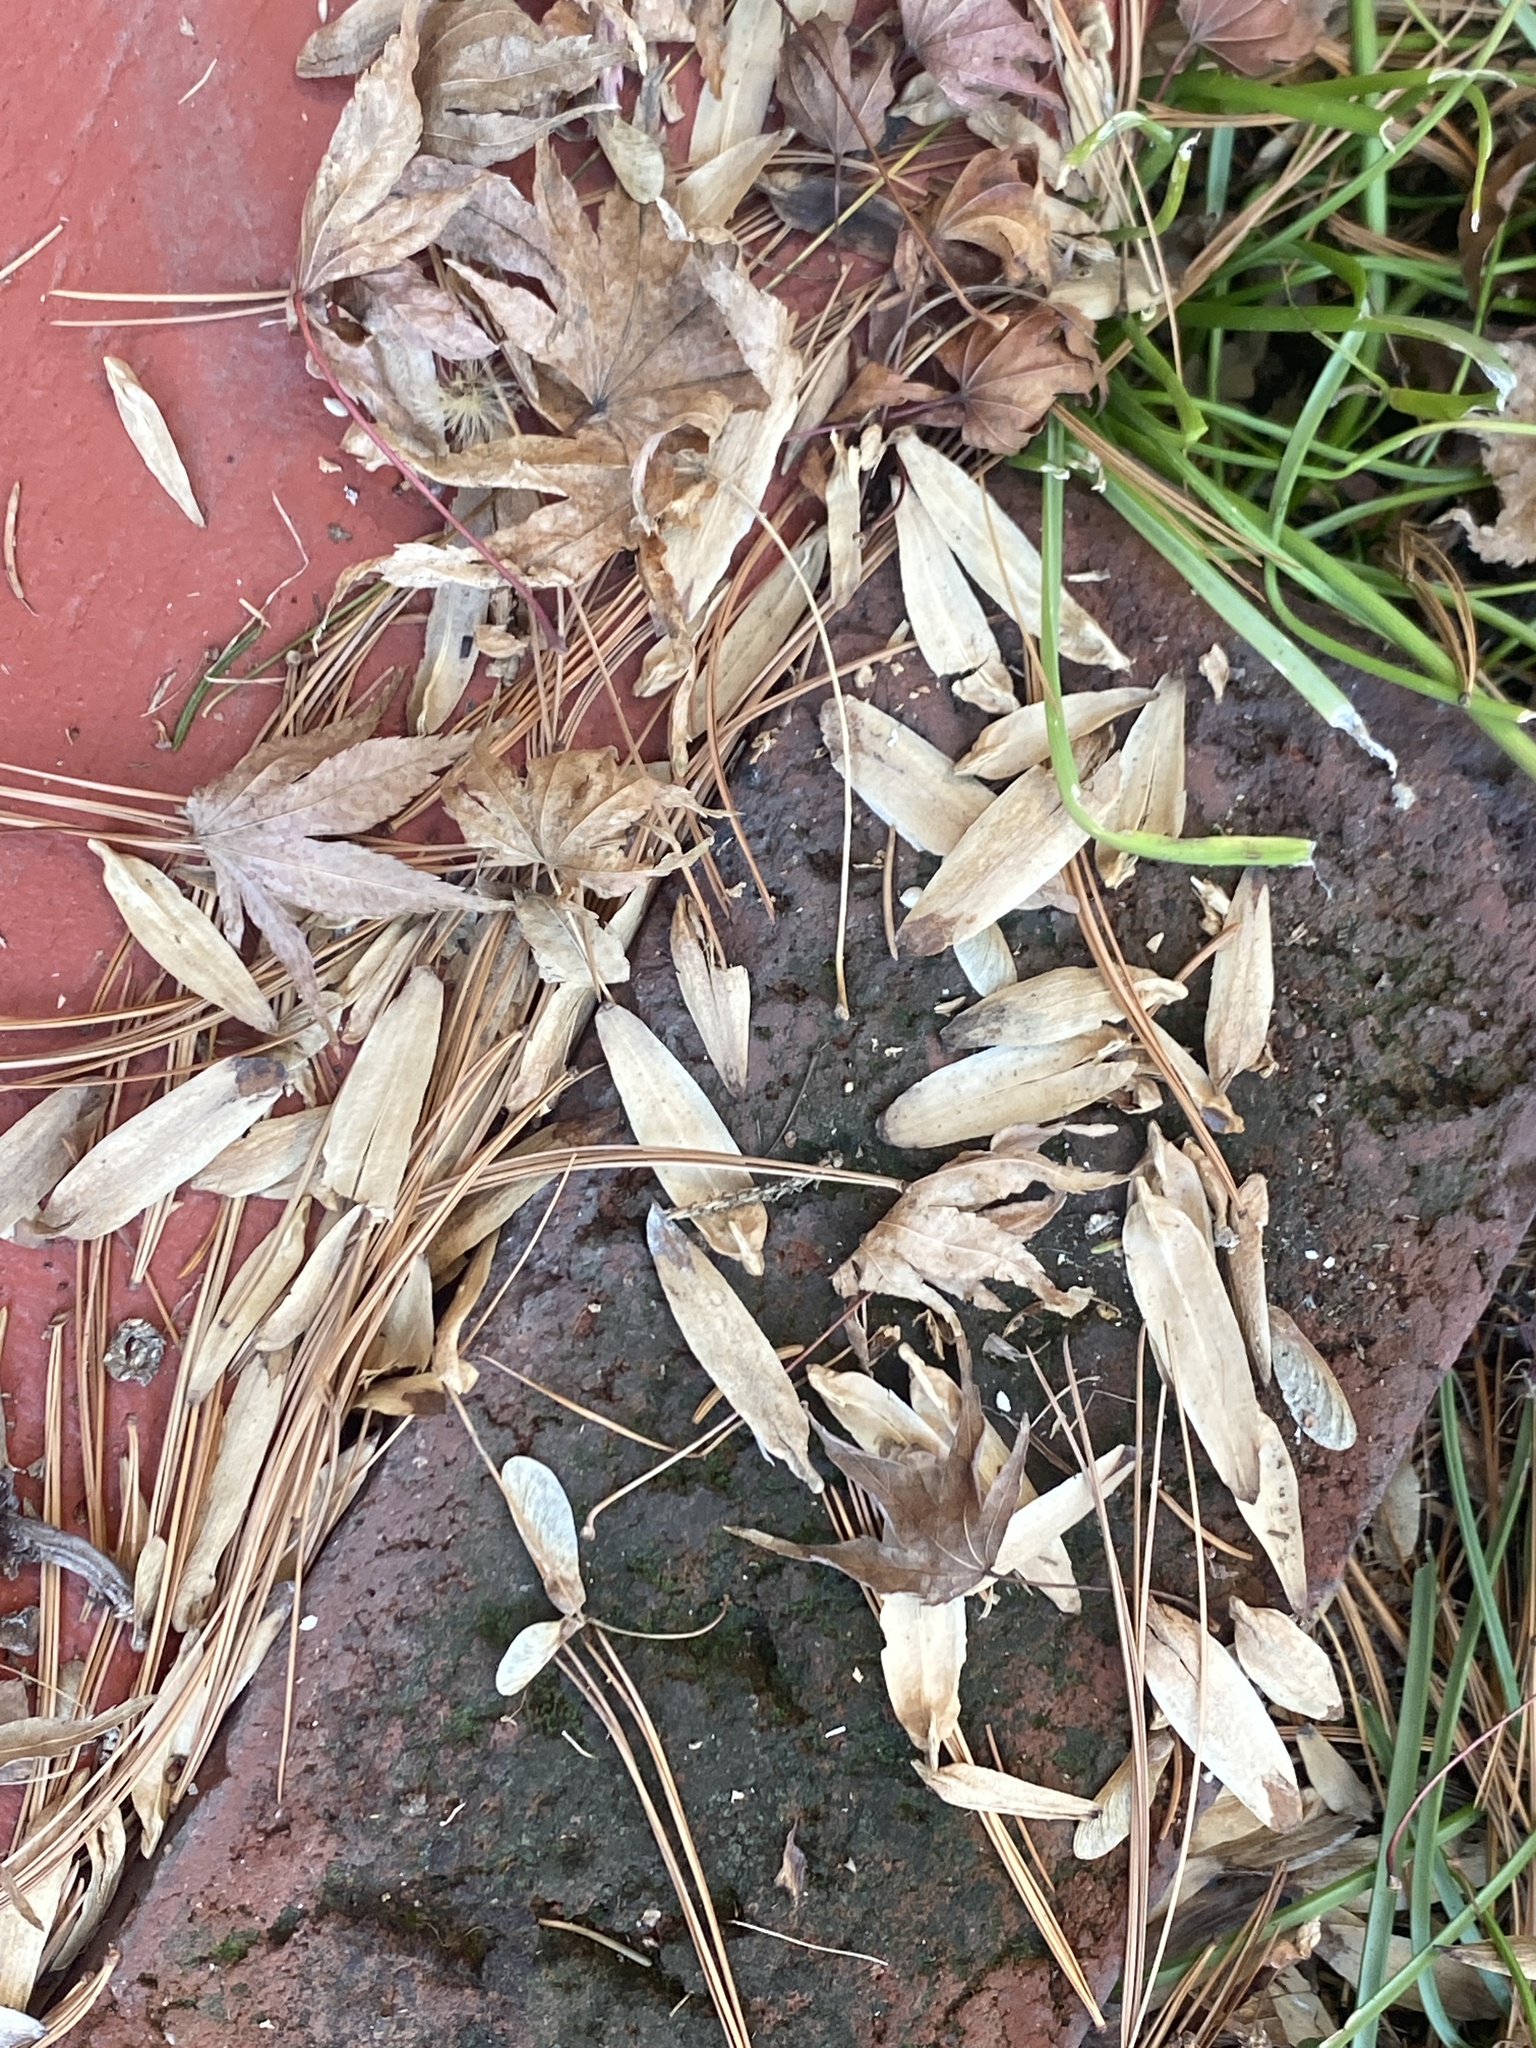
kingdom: Plantae
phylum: Tracheophyta
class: Magnoliopsida
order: Magnoliales
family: Magnoliaceae
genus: Liriodendron
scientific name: Liriodendron tulipifera
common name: Tulip tree
